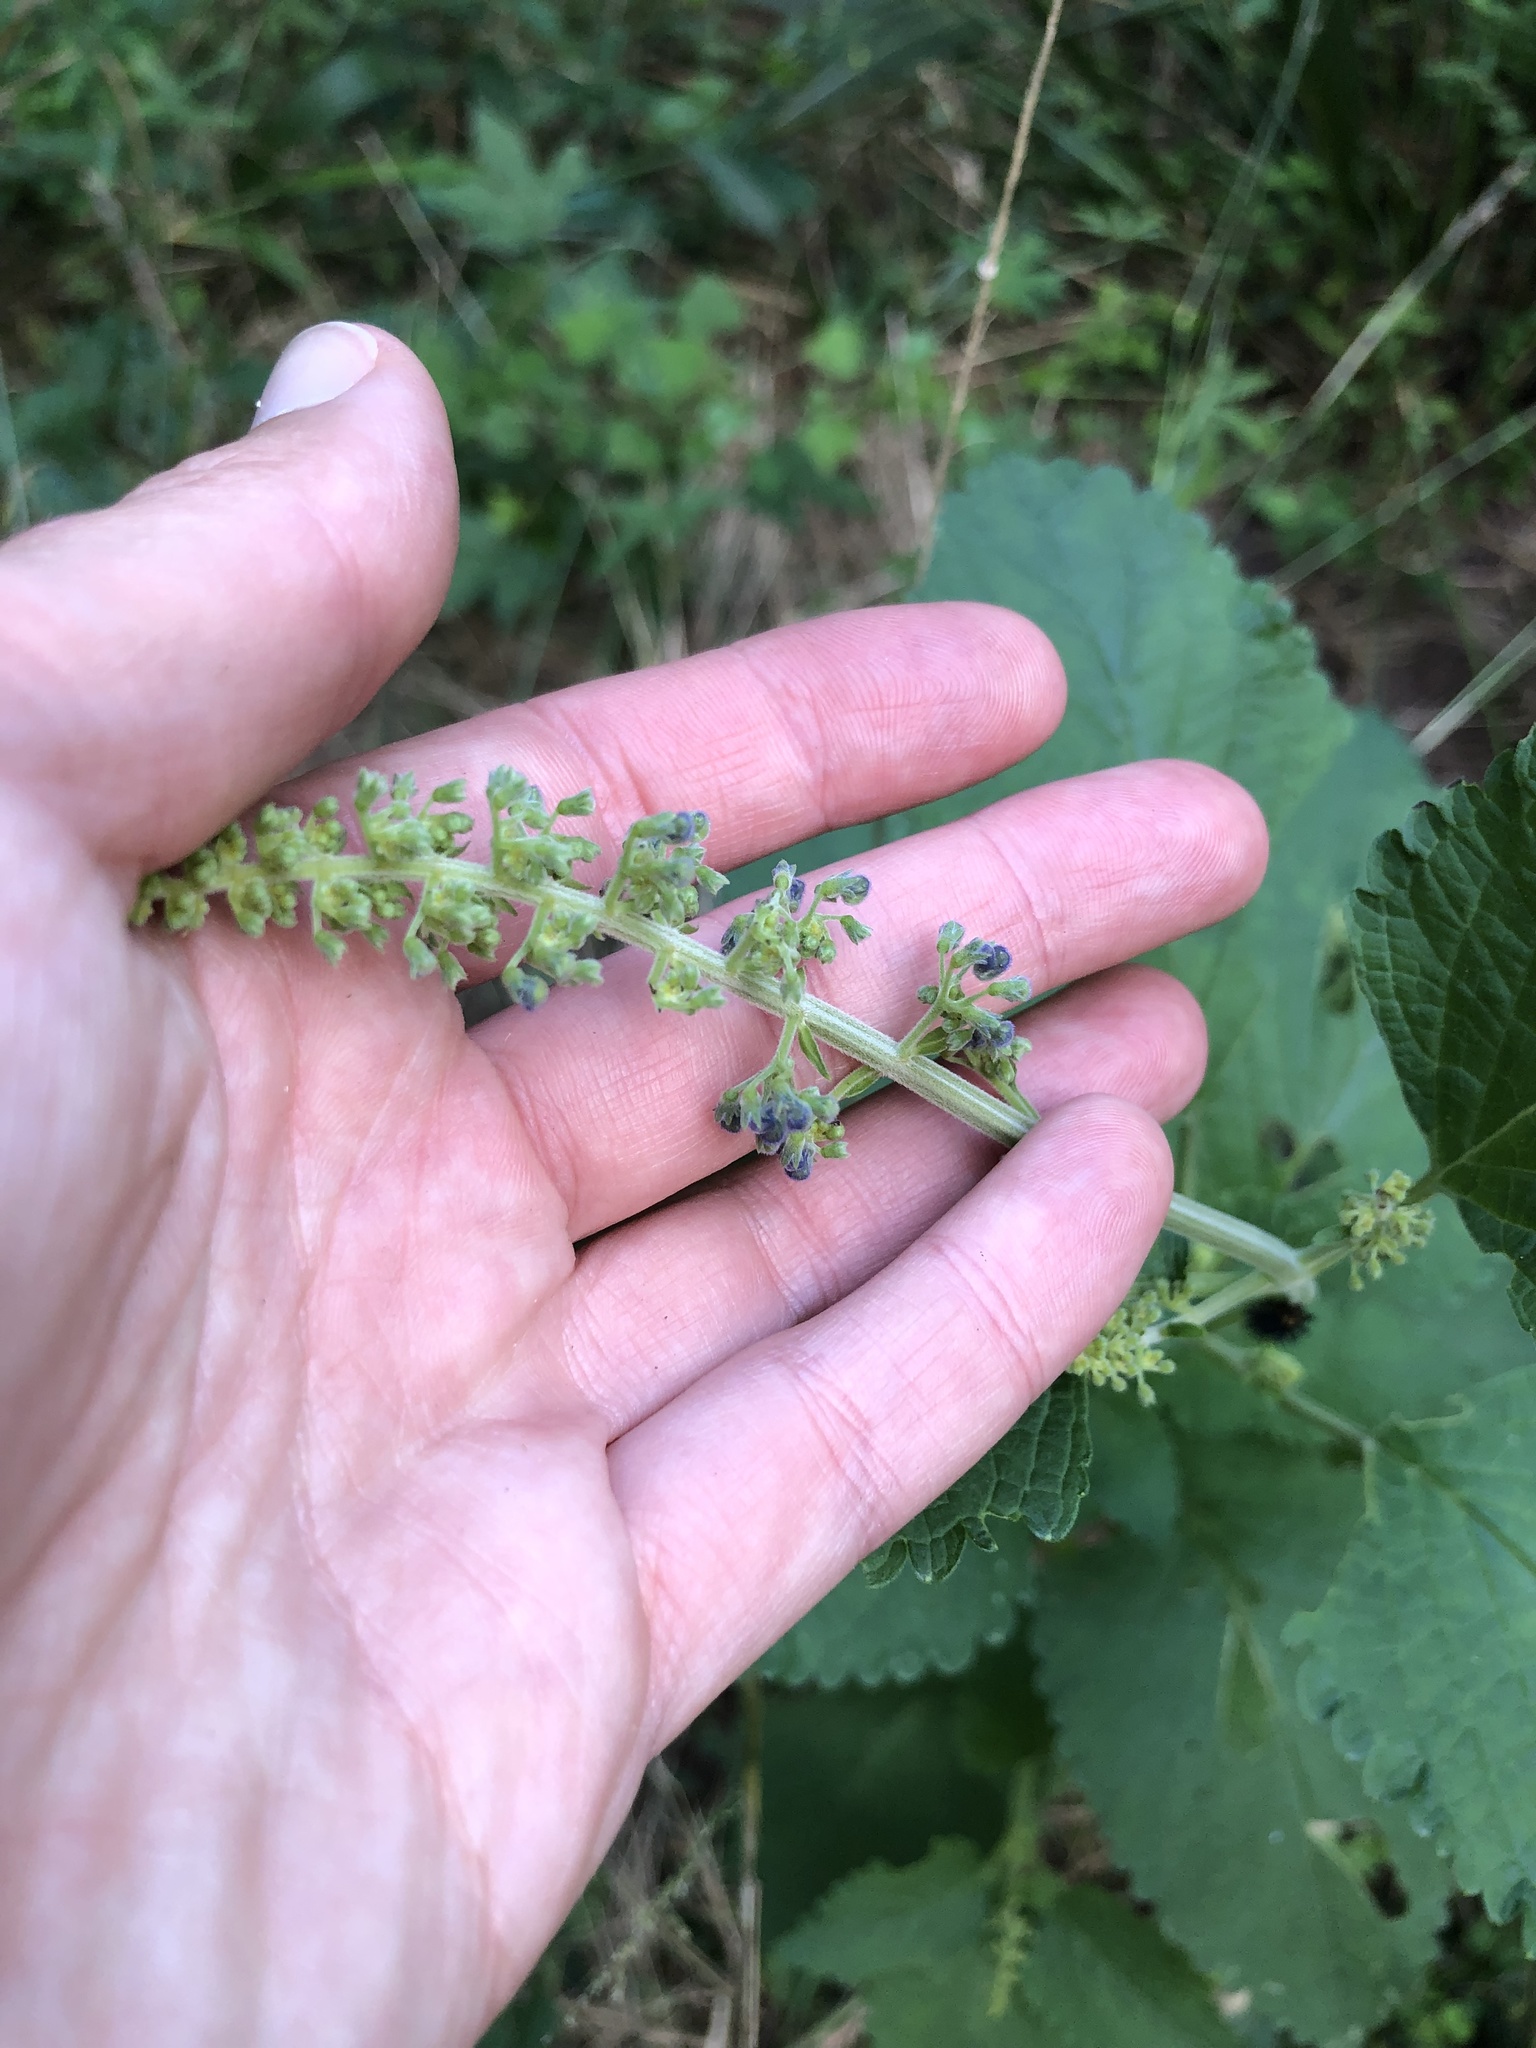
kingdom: Plantae
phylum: Tracheophyta
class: Magnoliopsida
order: Lamiales
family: Lamiaceae
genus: Coleus
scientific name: Coleus hereroensis
